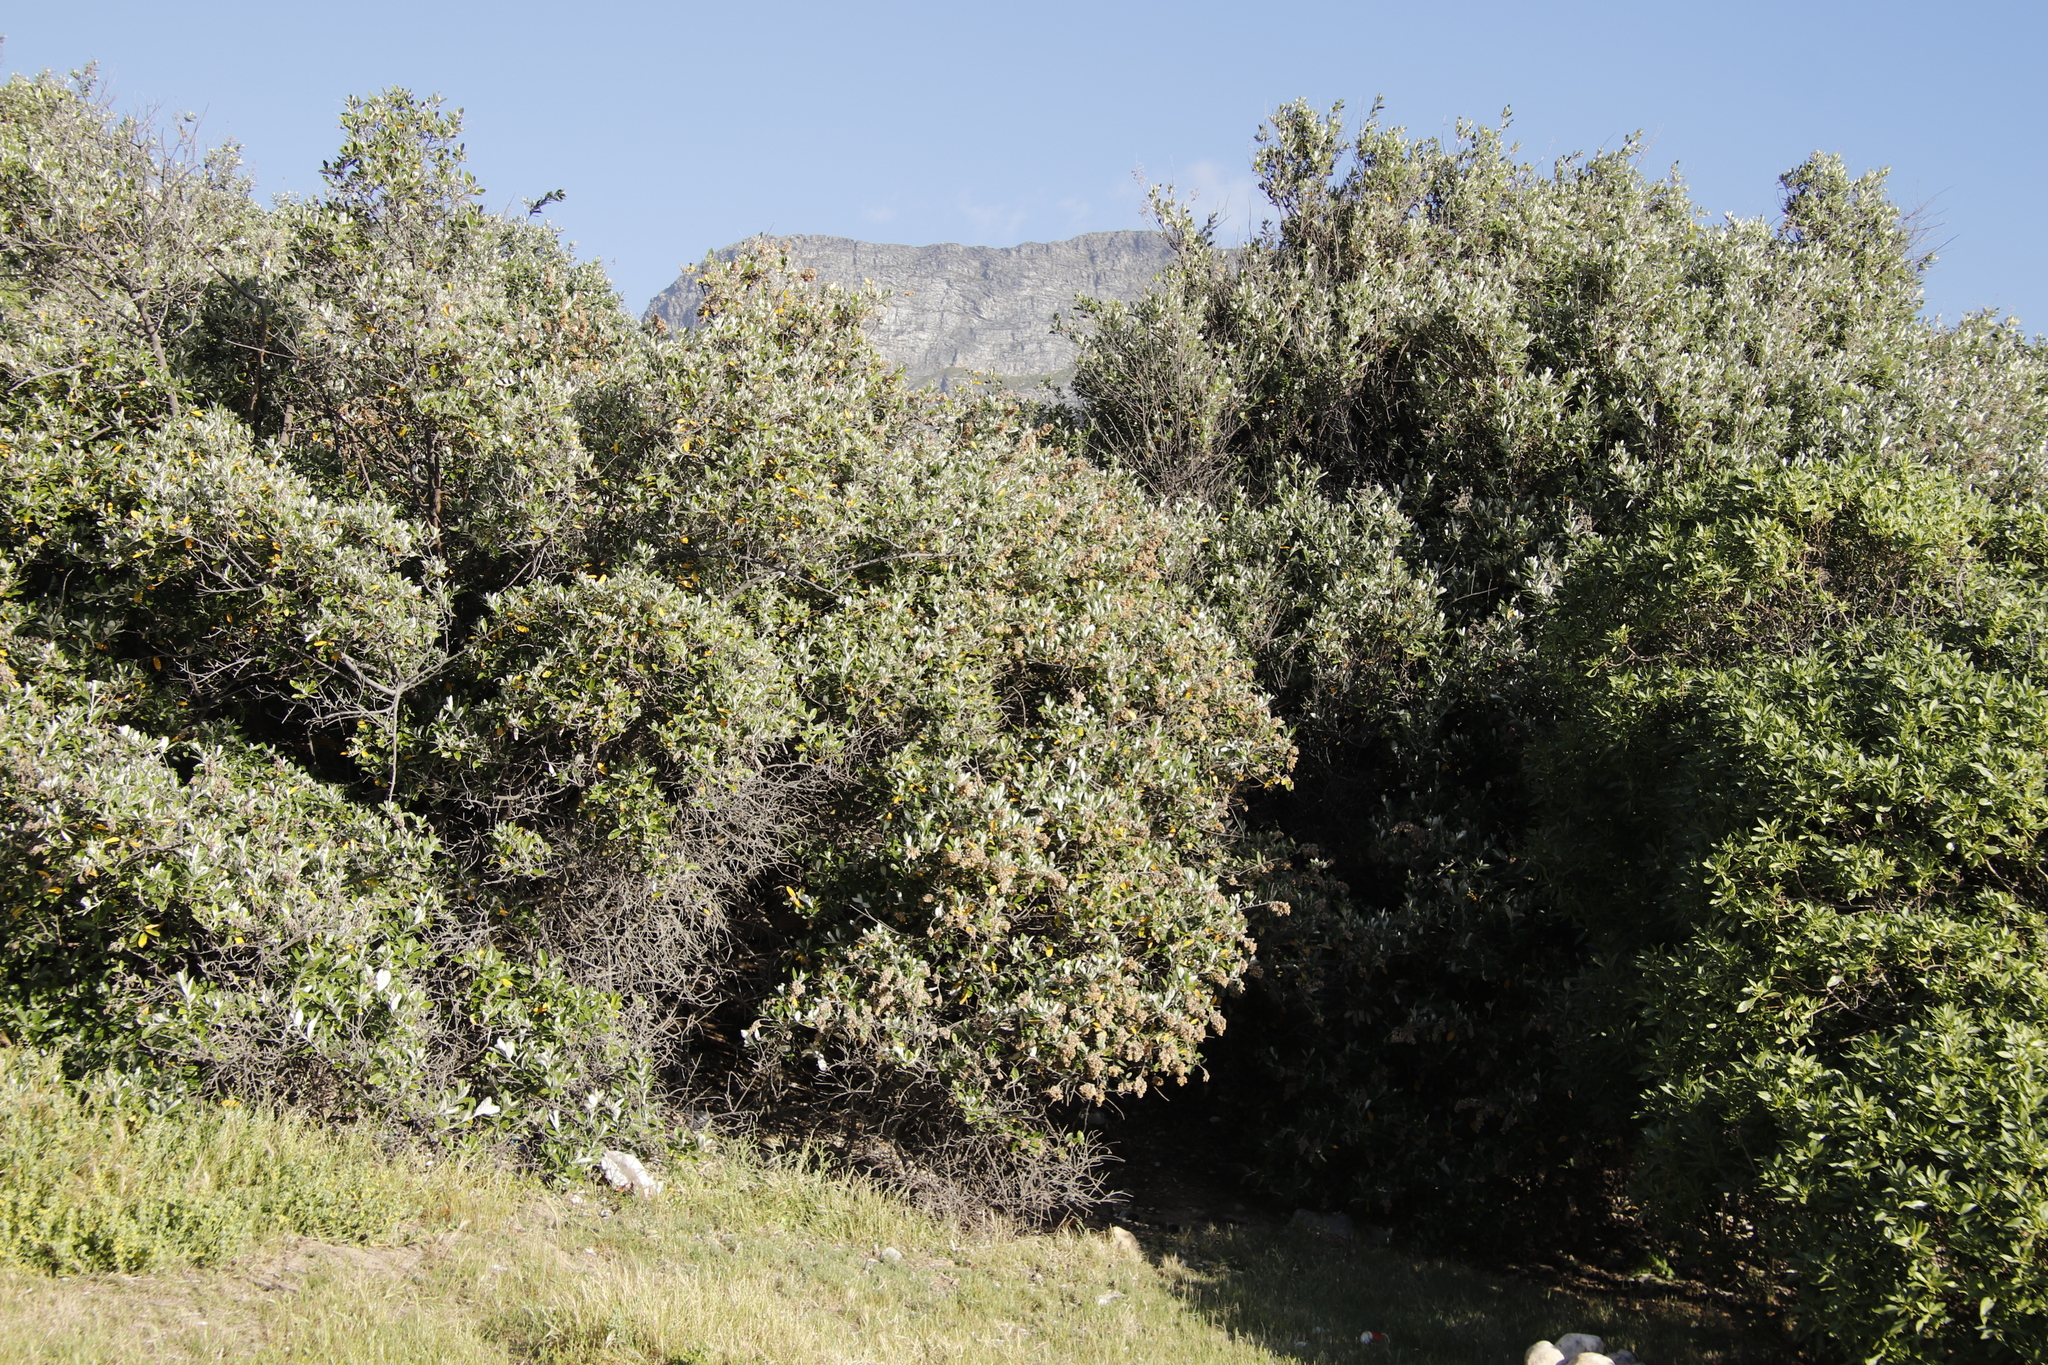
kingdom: Plantae
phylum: Tracheophyta
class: Magnoliopsida
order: Asterales
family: Asteraceae
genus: Tarchonanthus
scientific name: Tarchonanthus littoralis
